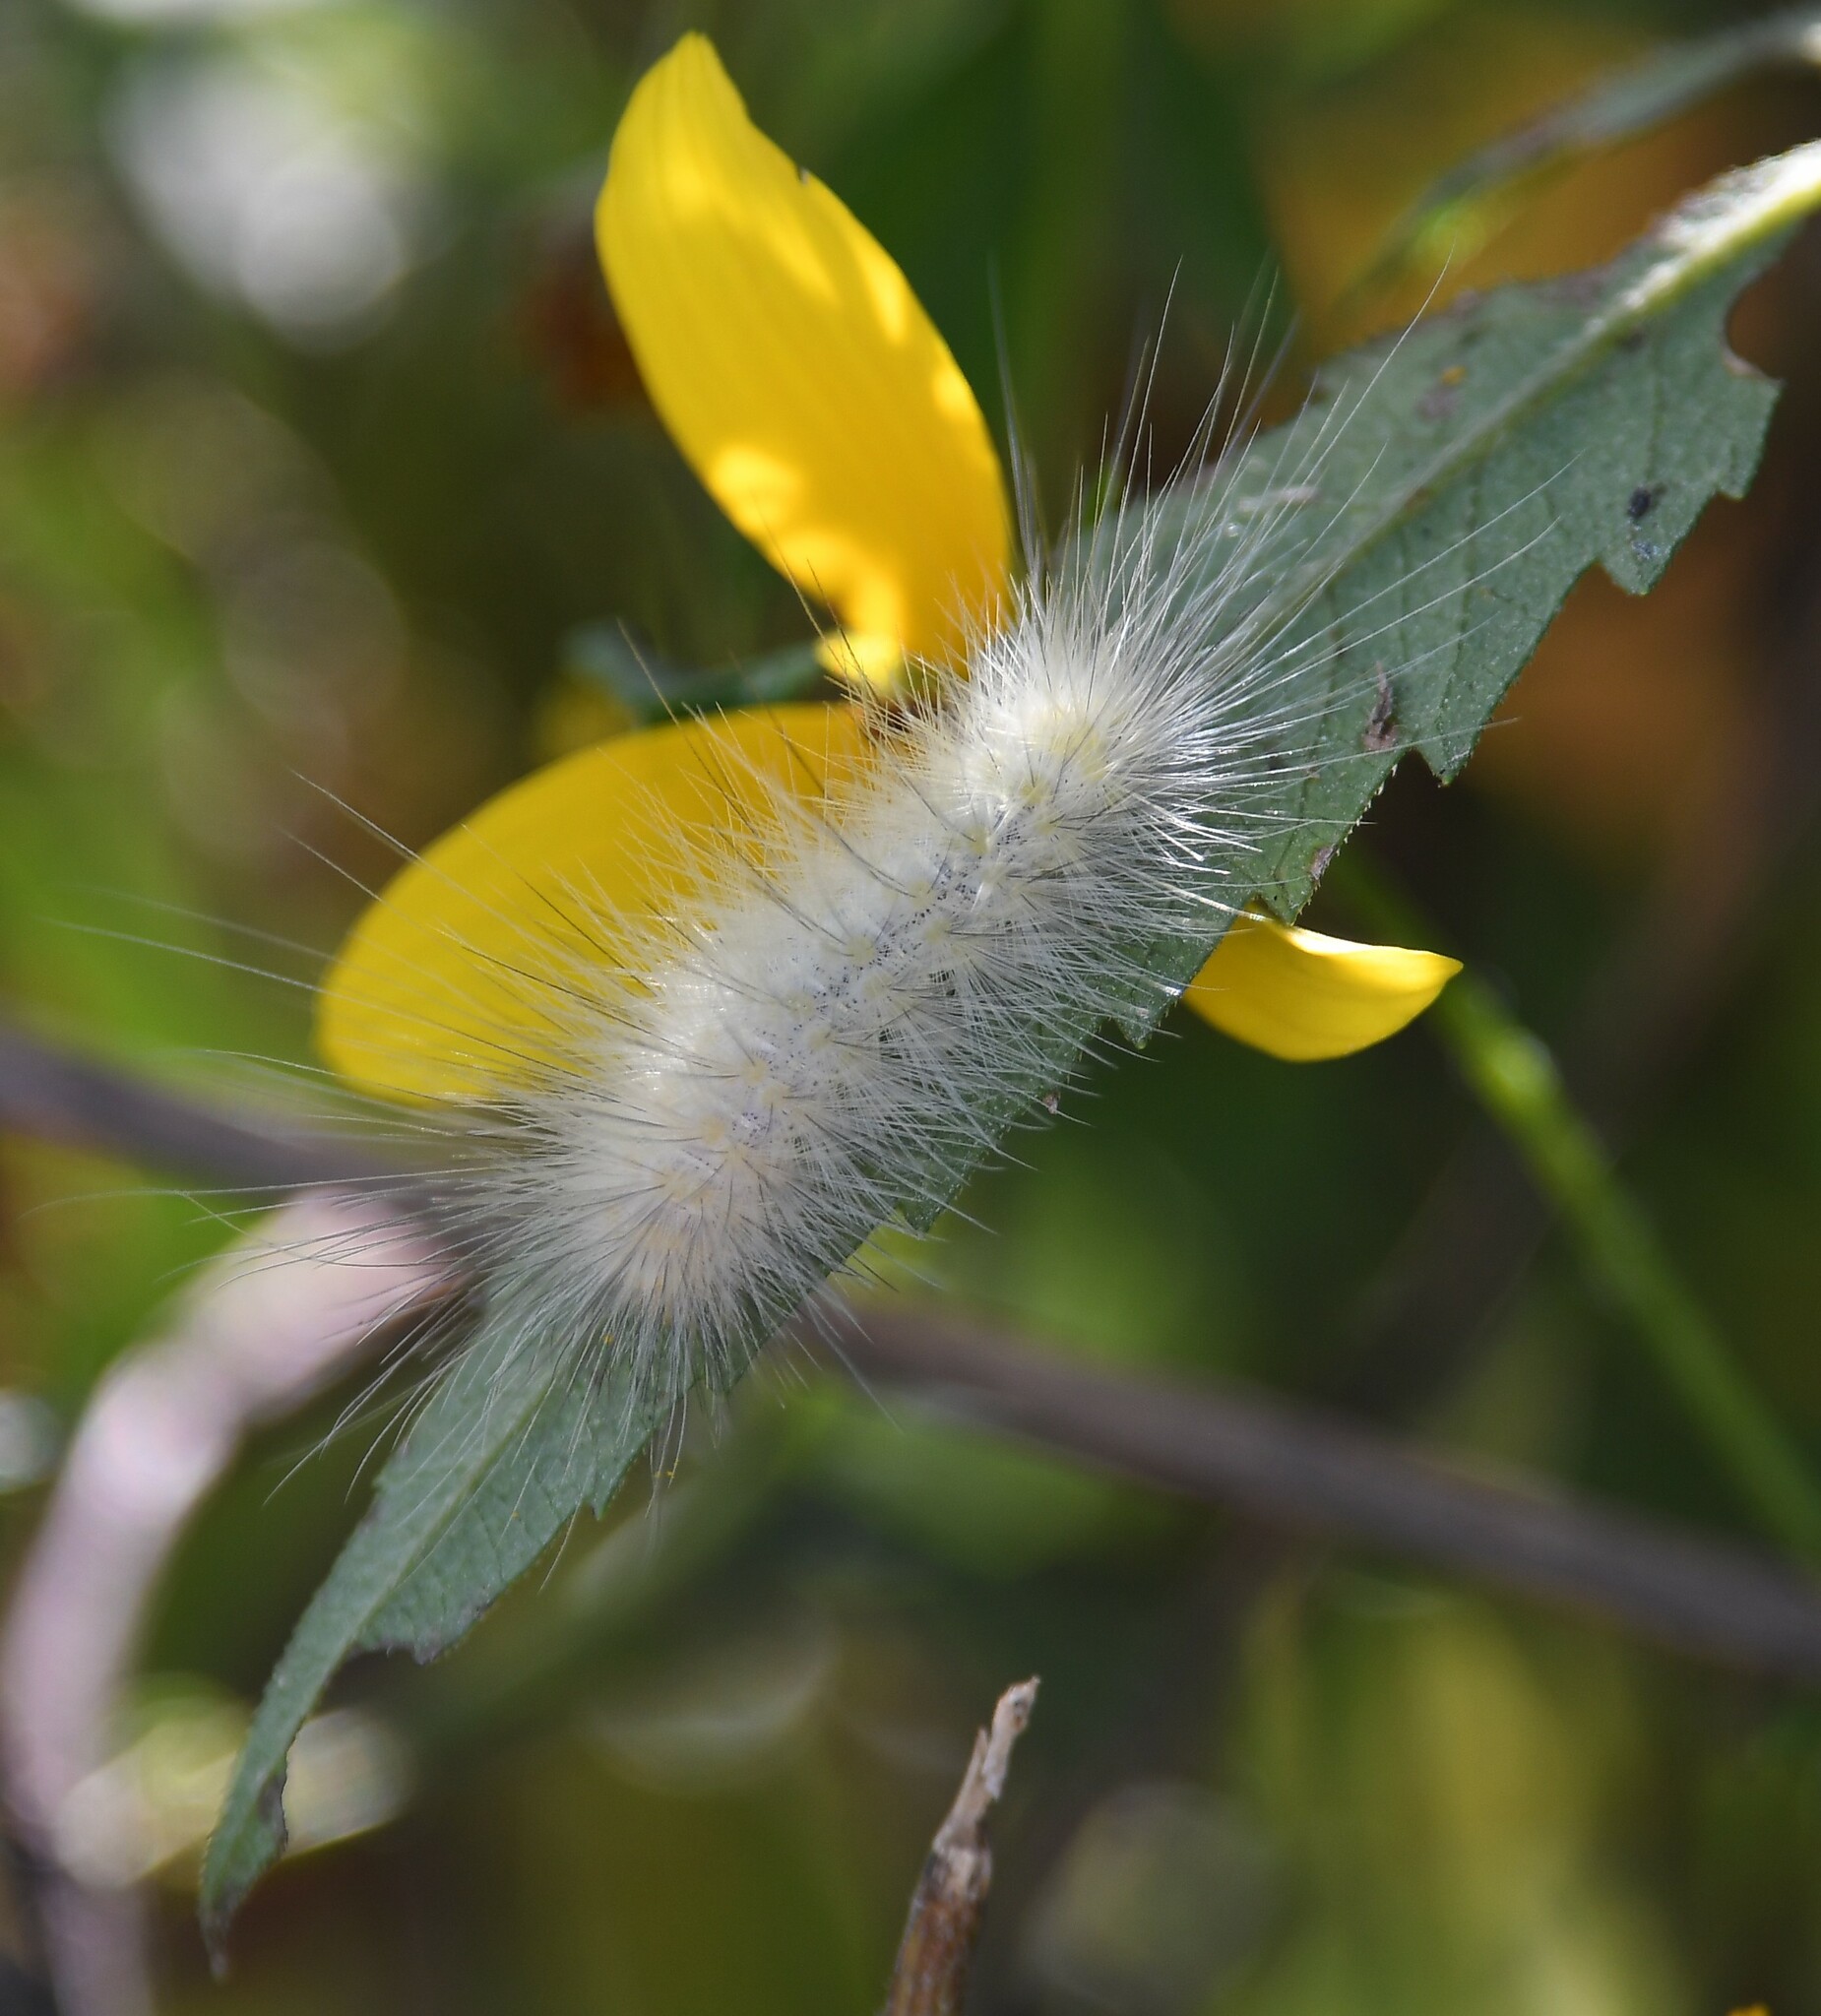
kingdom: Animalia
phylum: Arthropoda
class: Insecta
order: Lepidoptera
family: Erebidae
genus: Spilosoma
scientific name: Spilosoma virginica
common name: Virginia tiger moth
